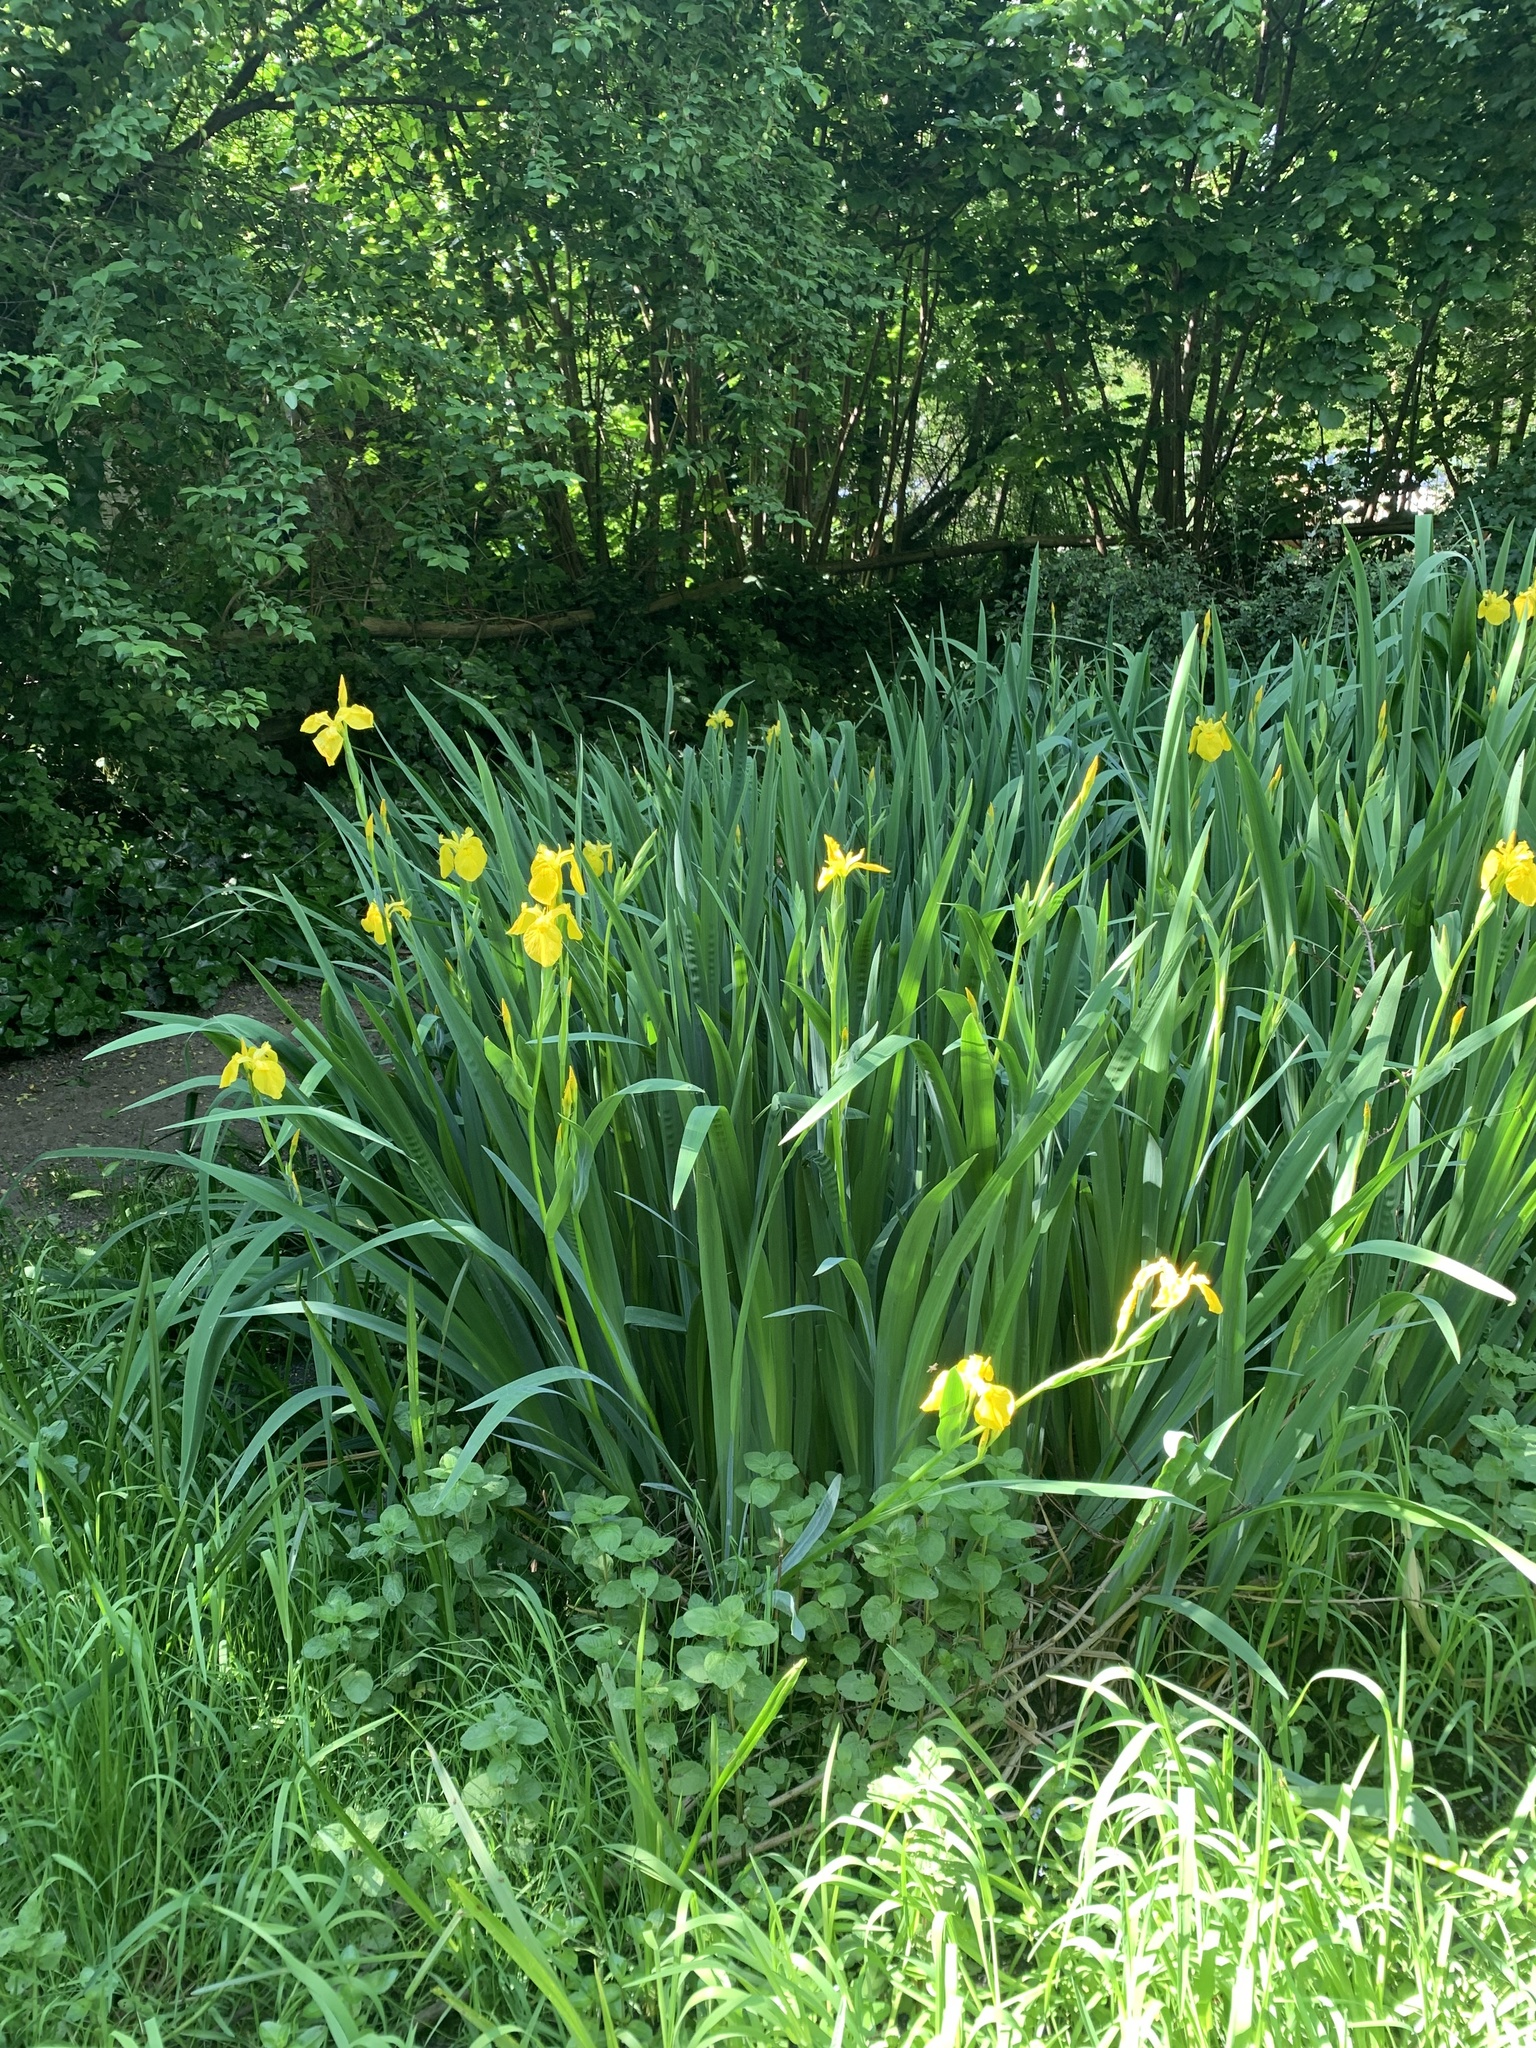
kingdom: Plantae
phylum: Tracheophyta
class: Liliopsida
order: Asparagales
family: Iridaceae
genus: Iris
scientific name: Iris pseudacorus
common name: Yellow flag
